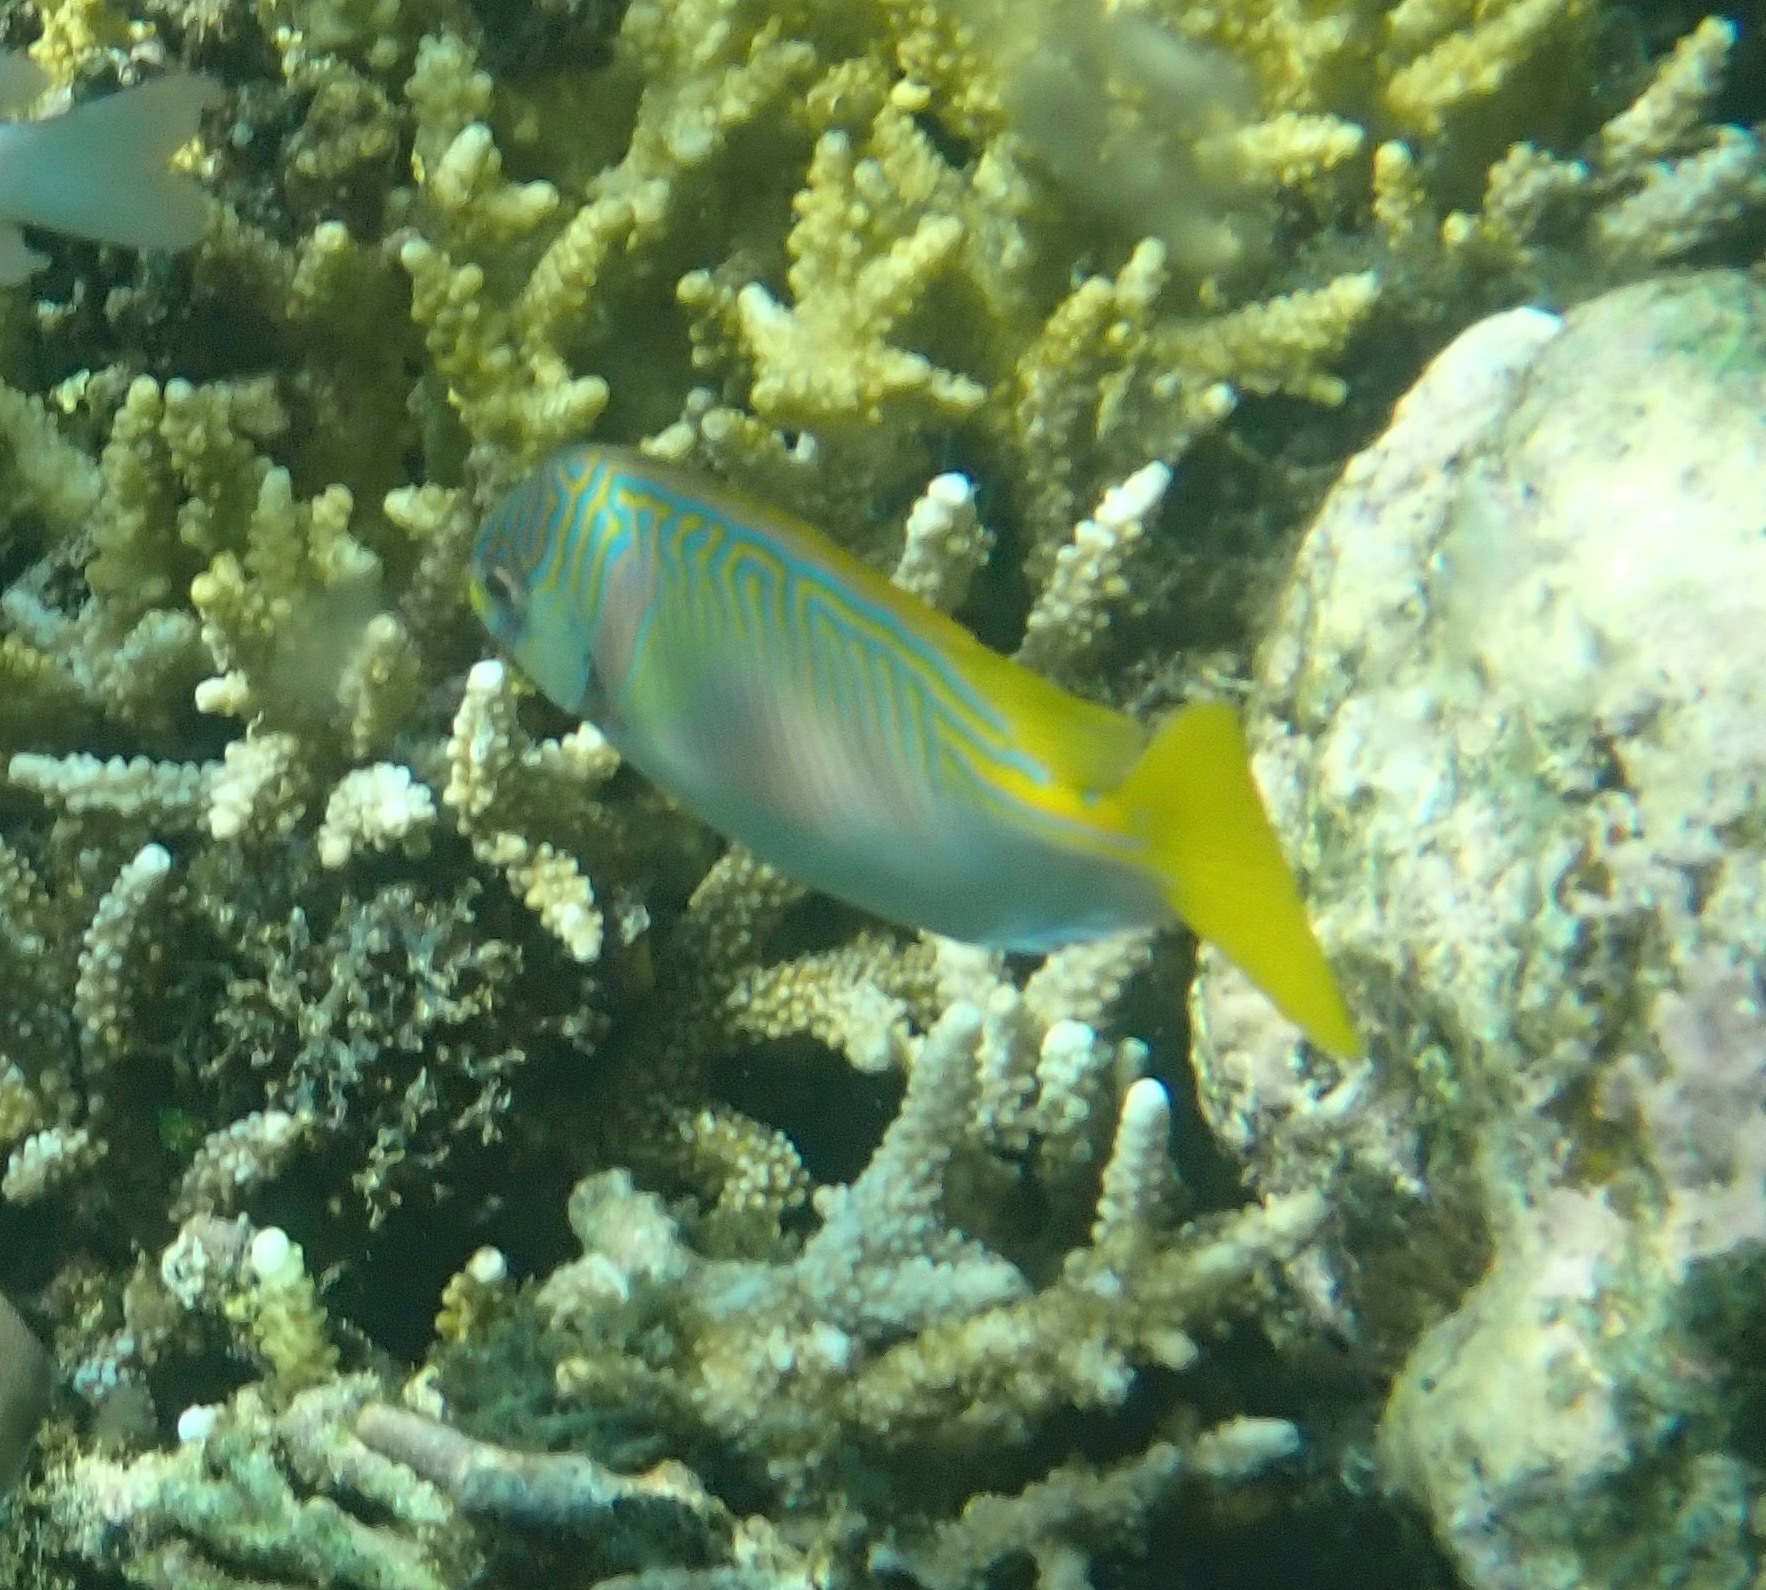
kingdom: Animalia
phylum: Chordata
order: Perciformes
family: Siganidae
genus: Siganus
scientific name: Siganus doliatus
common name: Barred spinefoot
